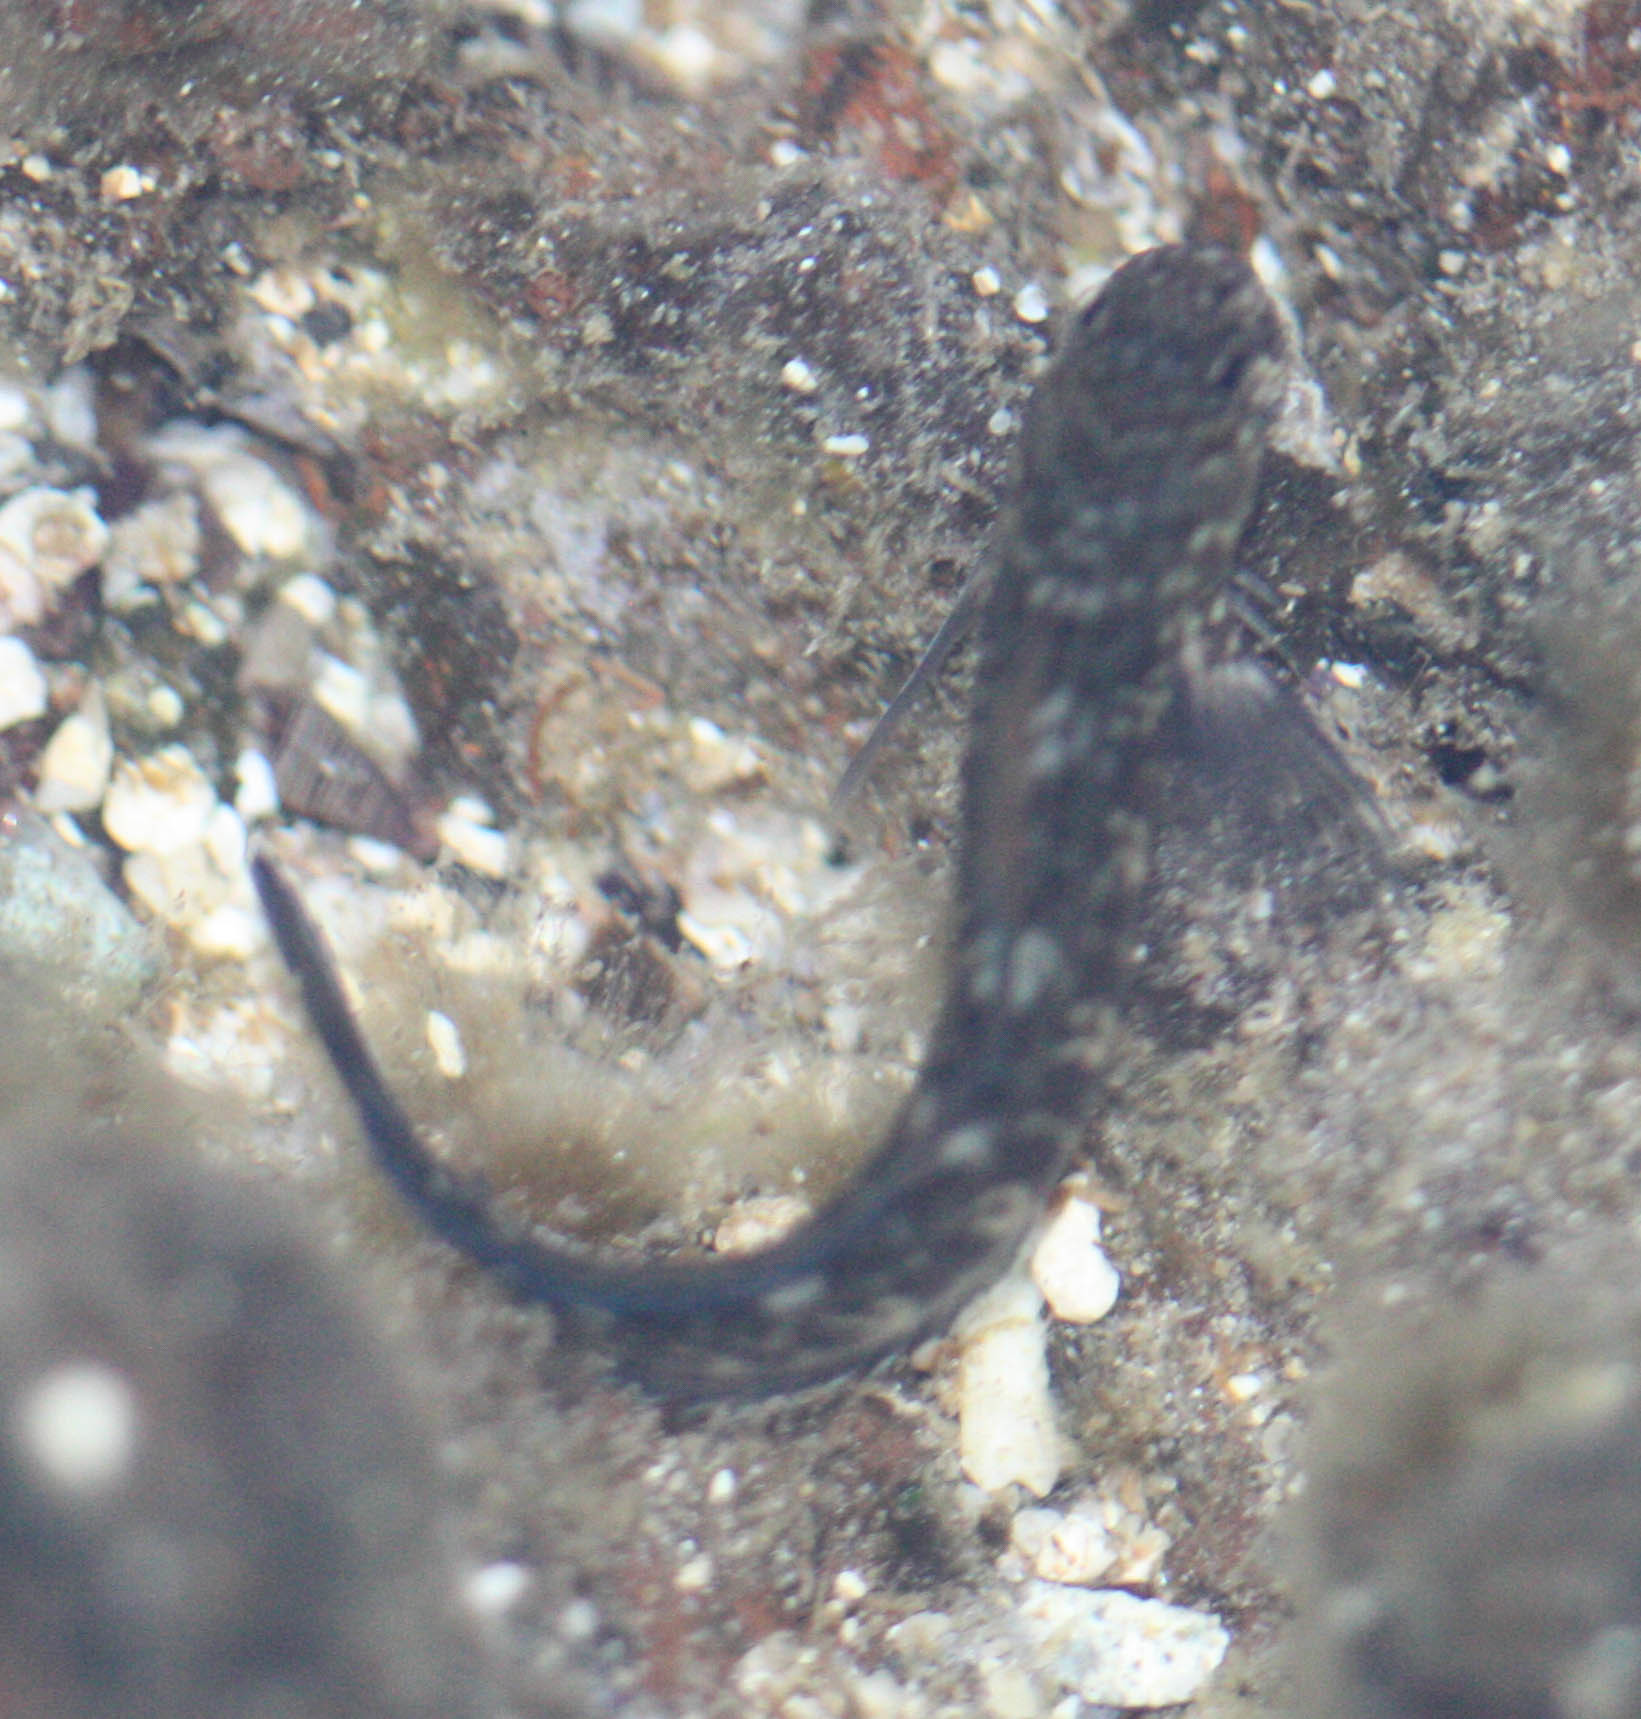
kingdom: Animalia
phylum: Chordata
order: Perciformes
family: Blenniidae
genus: Istiblennius
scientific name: Istiblennius zebra
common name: Zebra blenny
